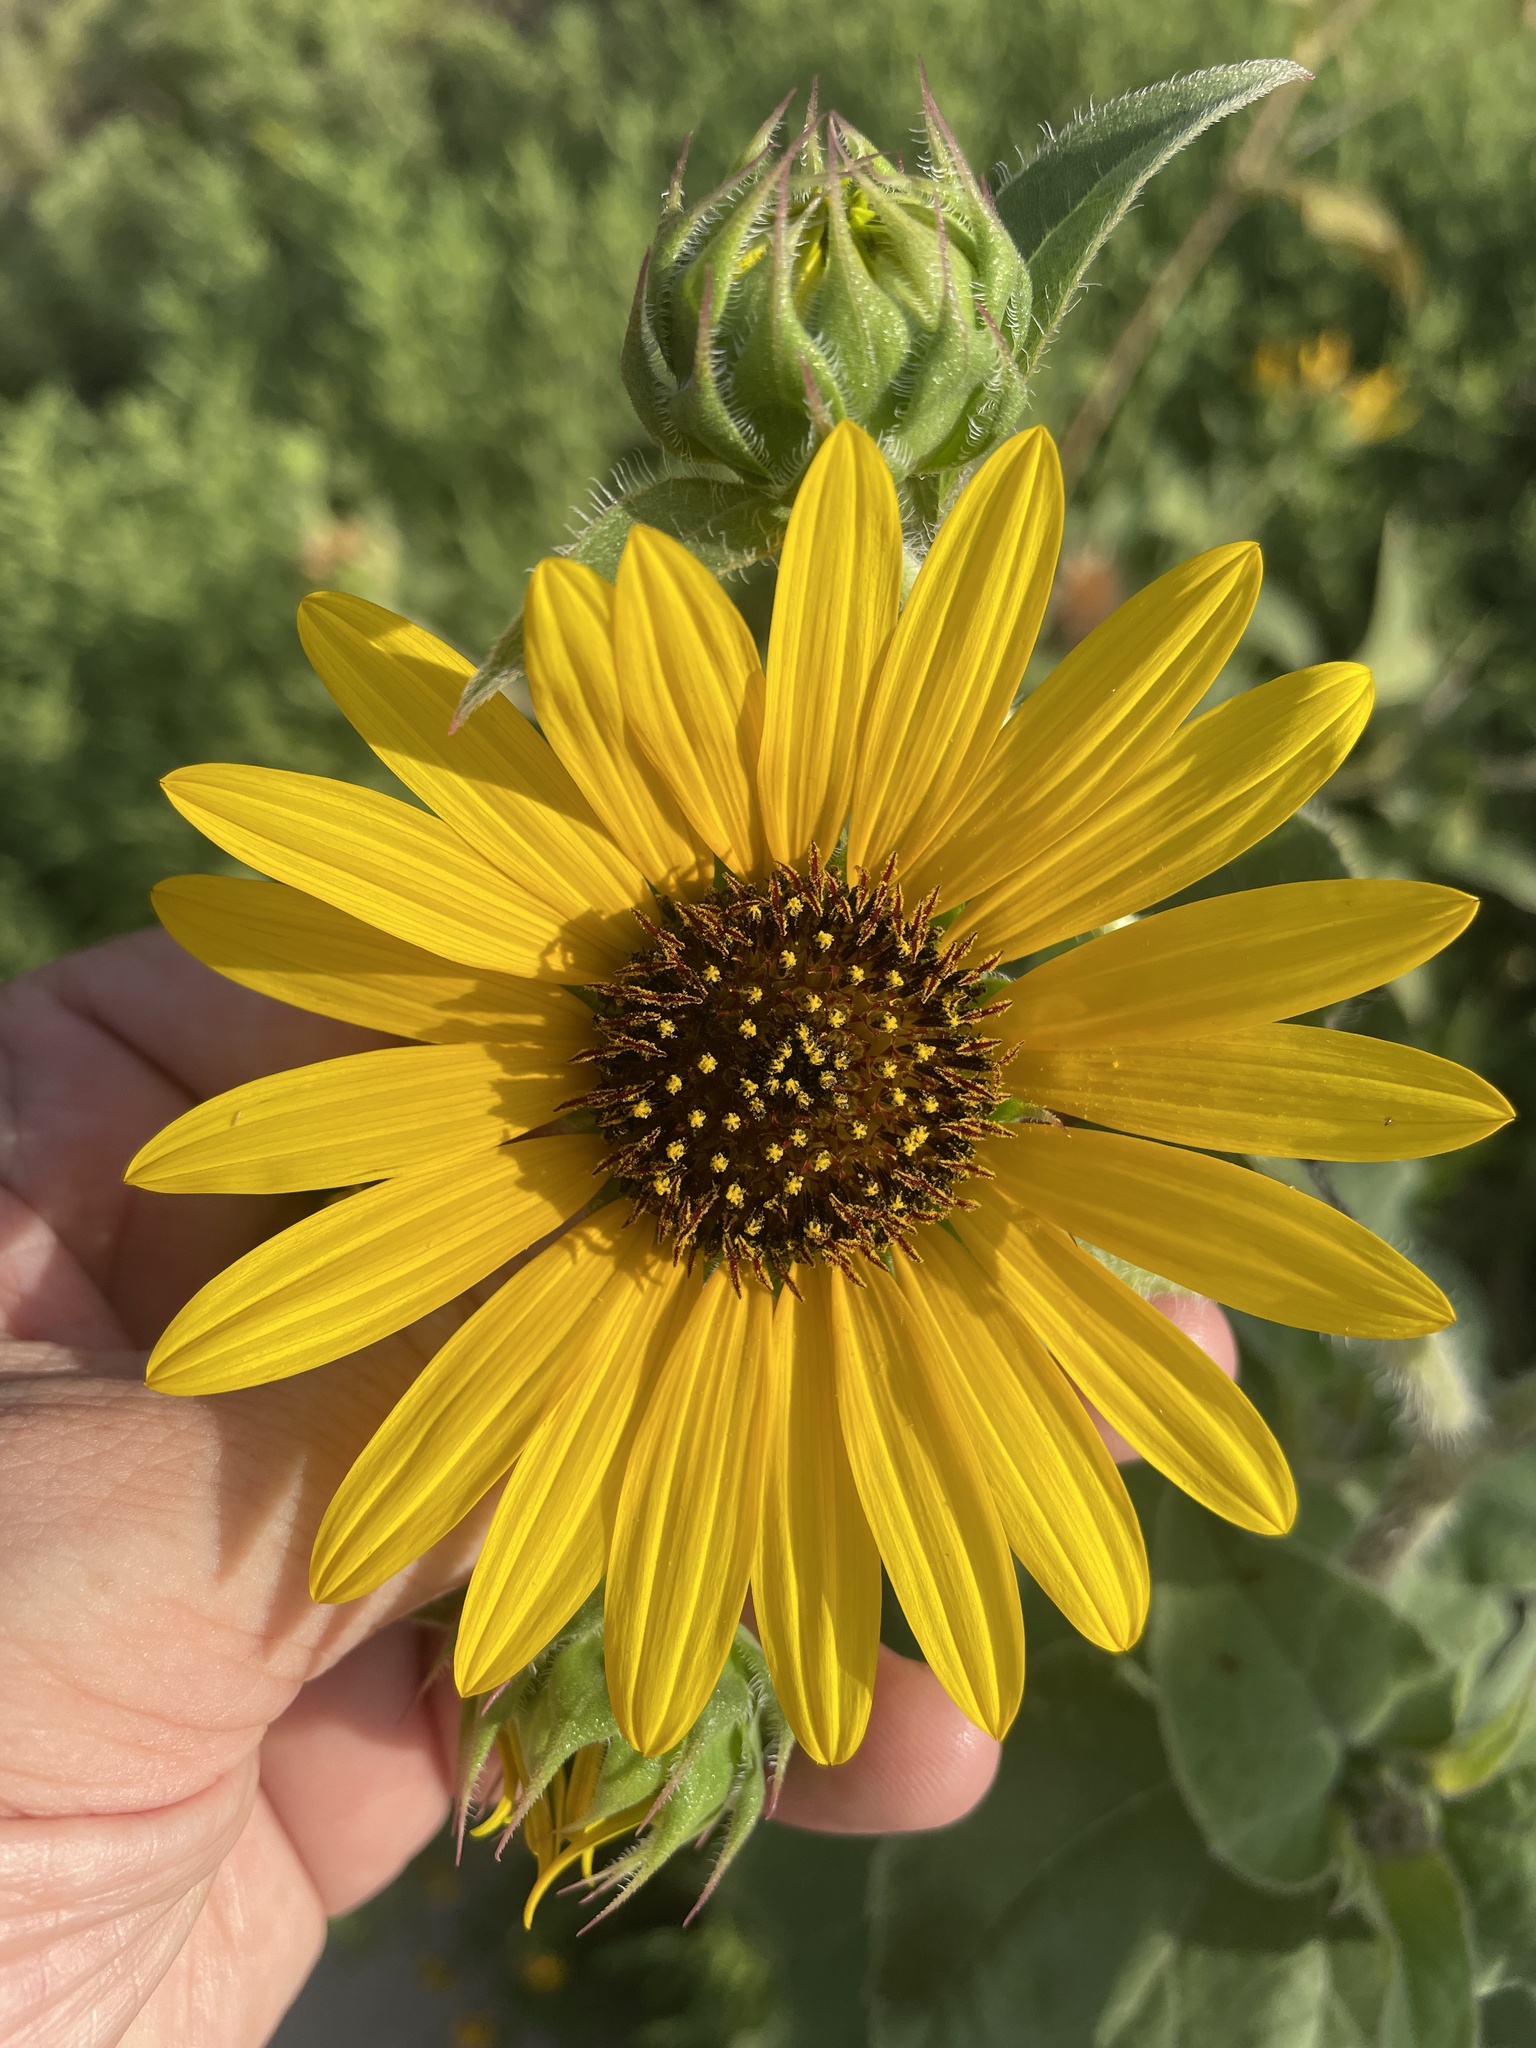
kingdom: Plantae
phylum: Tracheophyta
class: Magnoliopsida
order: Asterales
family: Asteraceae
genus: Helianthus
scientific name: Helianthus annuus
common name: Sunflower
